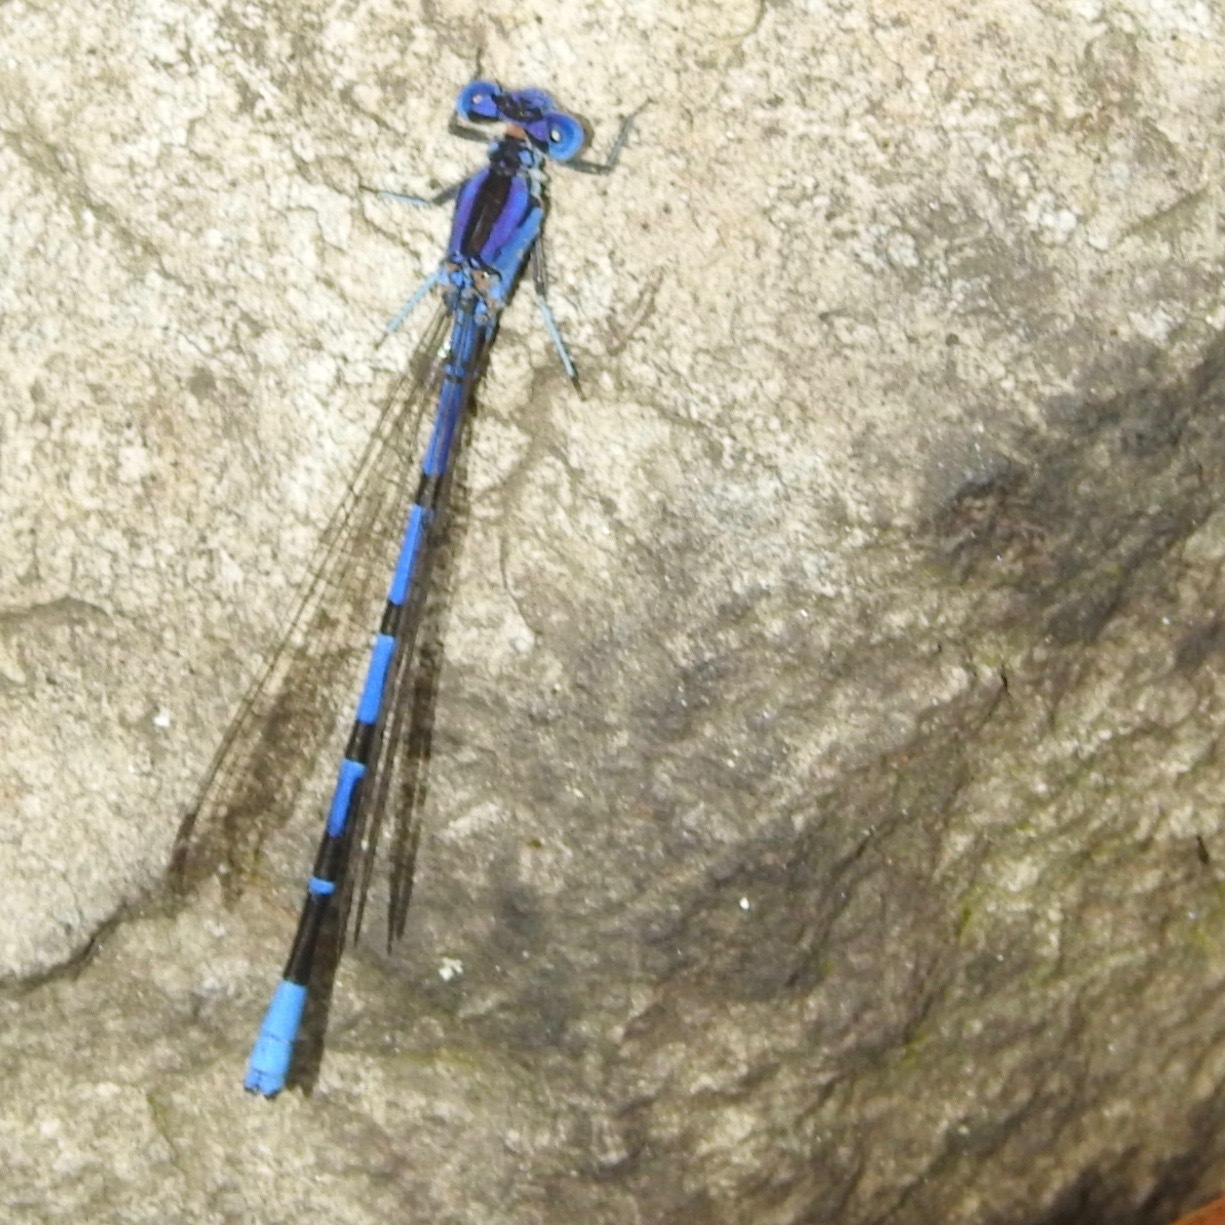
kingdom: Animalia
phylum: Arthropoda
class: Insecta
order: Odonata
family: Coenagrionidae
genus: Argia
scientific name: Argia vivida
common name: Vivid dancer
